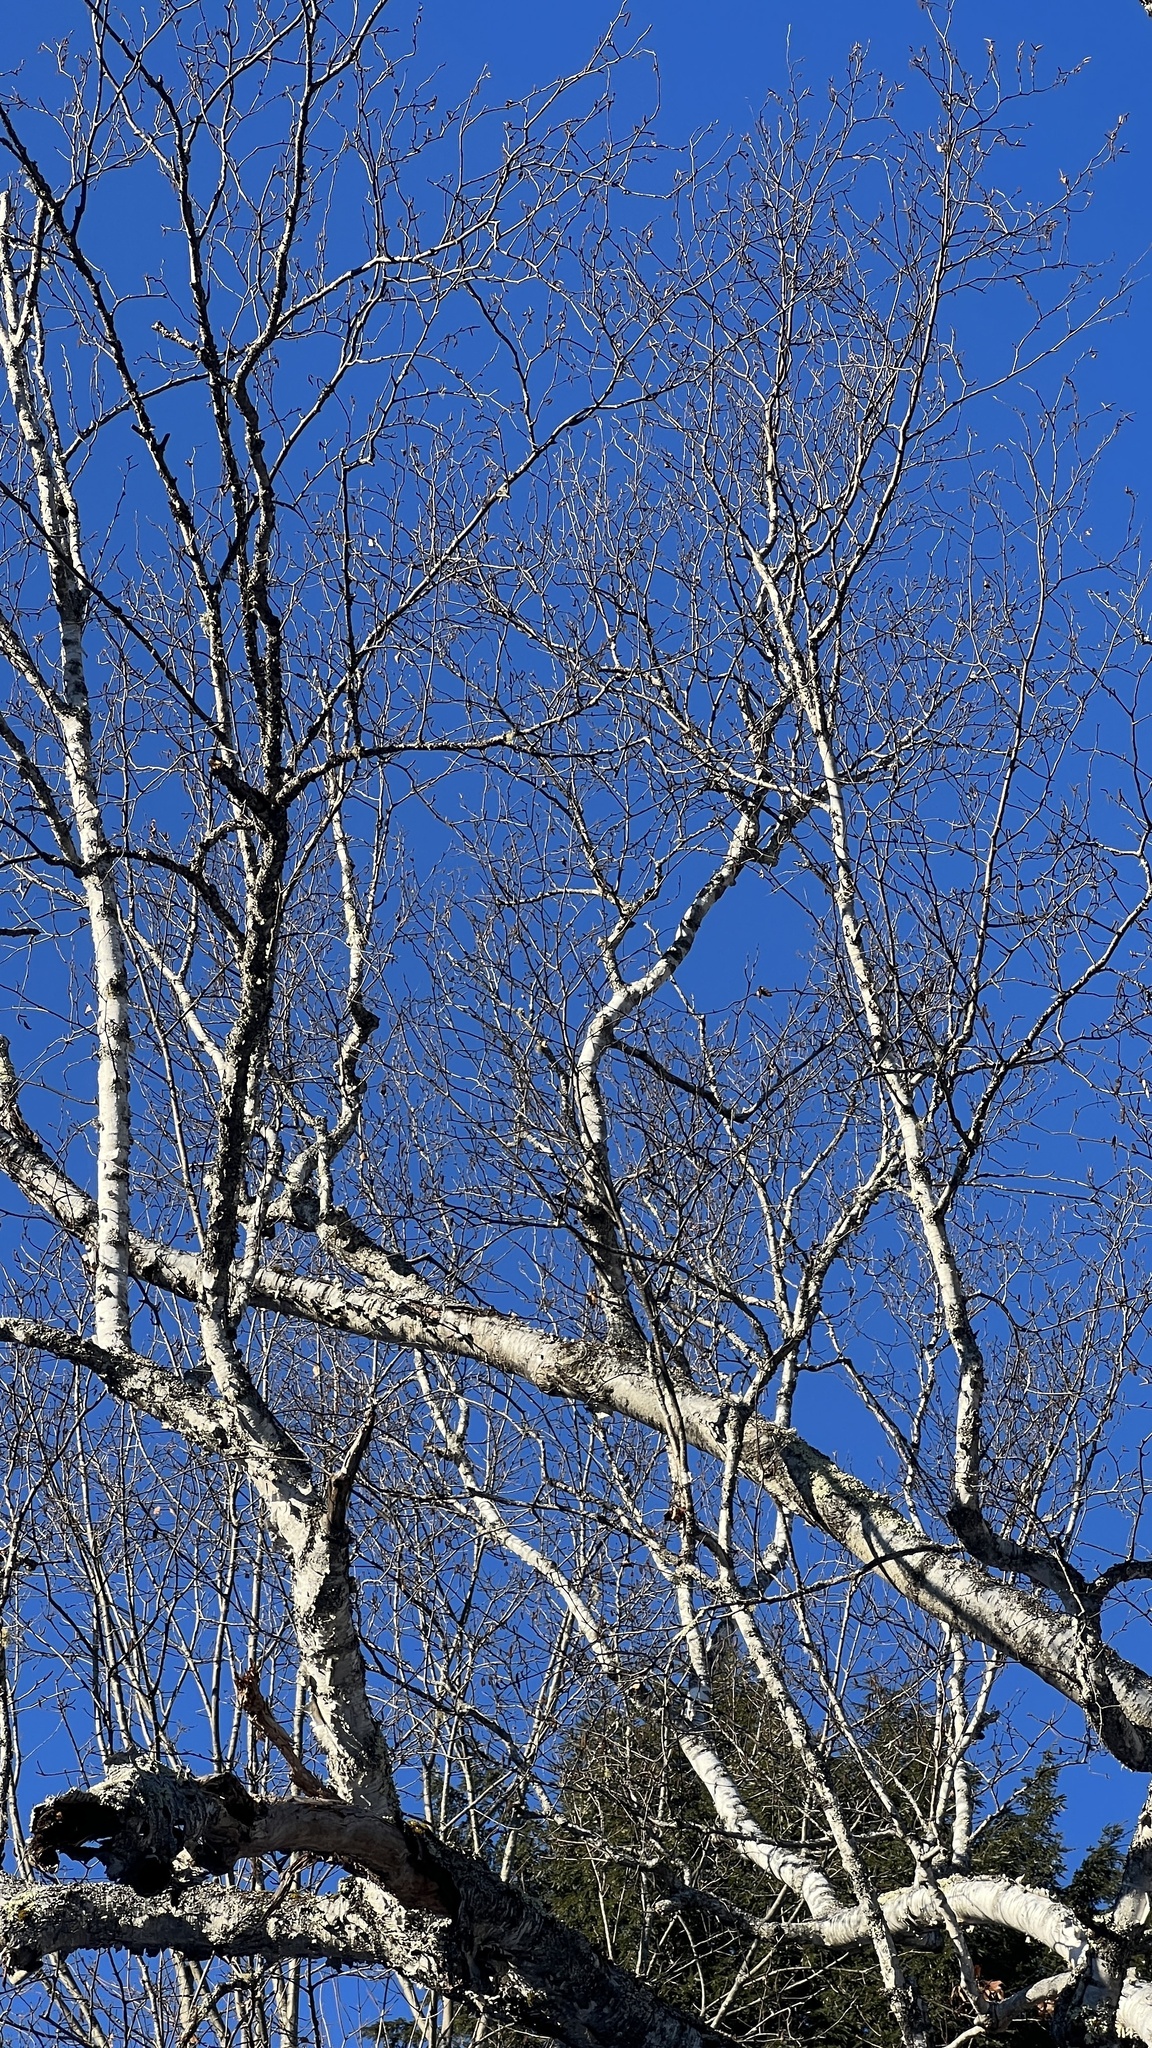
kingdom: Plantae
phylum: Tracheophyta
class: Magnoliopsida
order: Fagales
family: Betulaceae
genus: Betula
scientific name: Betula papyrifera
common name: Paper birch
